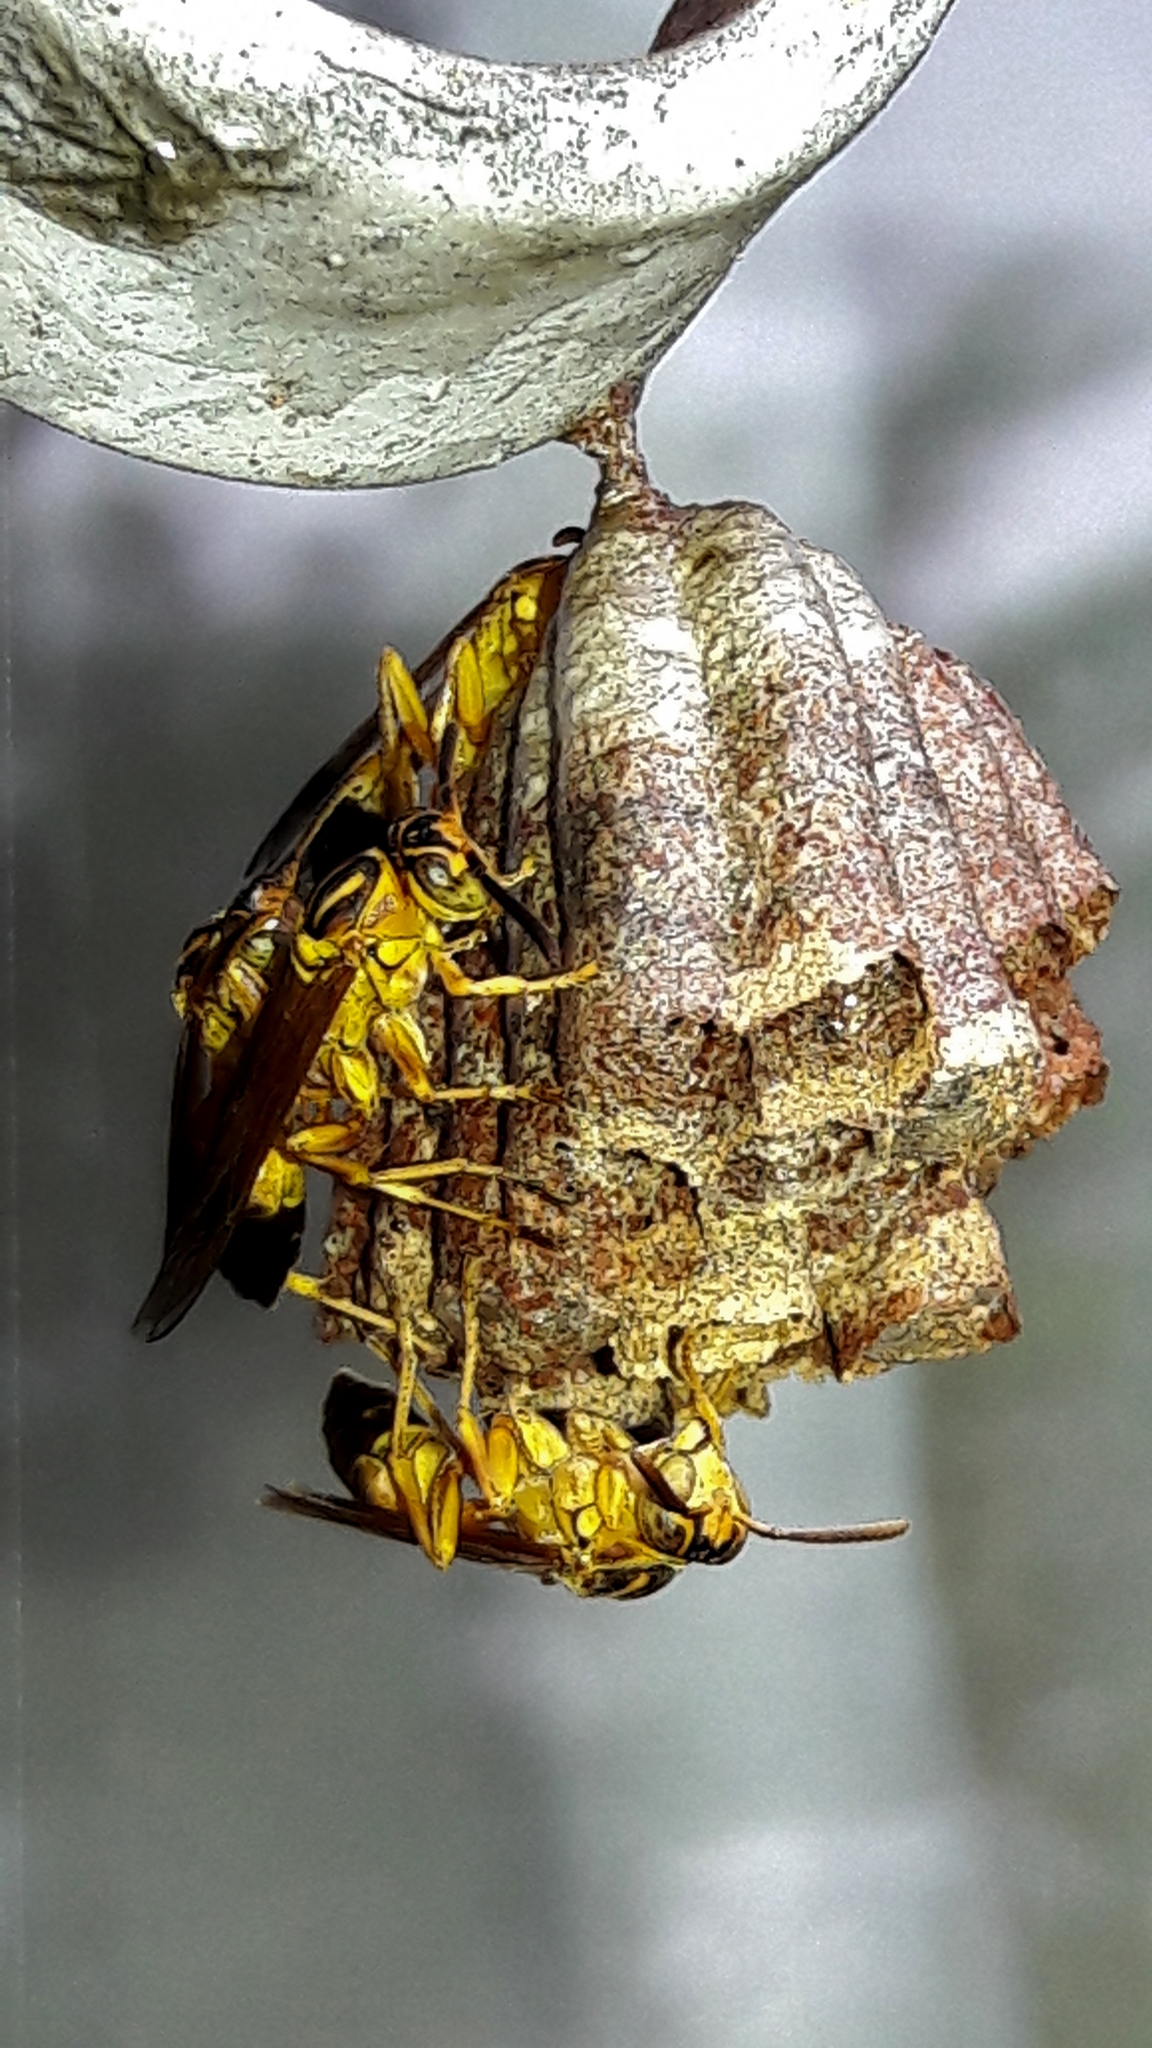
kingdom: Animalia
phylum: Arthropoda
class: Insecta
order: Hymenoptera
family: Vespidae
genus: Mischocyttarus
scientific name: Mischocyttarus cerberus
